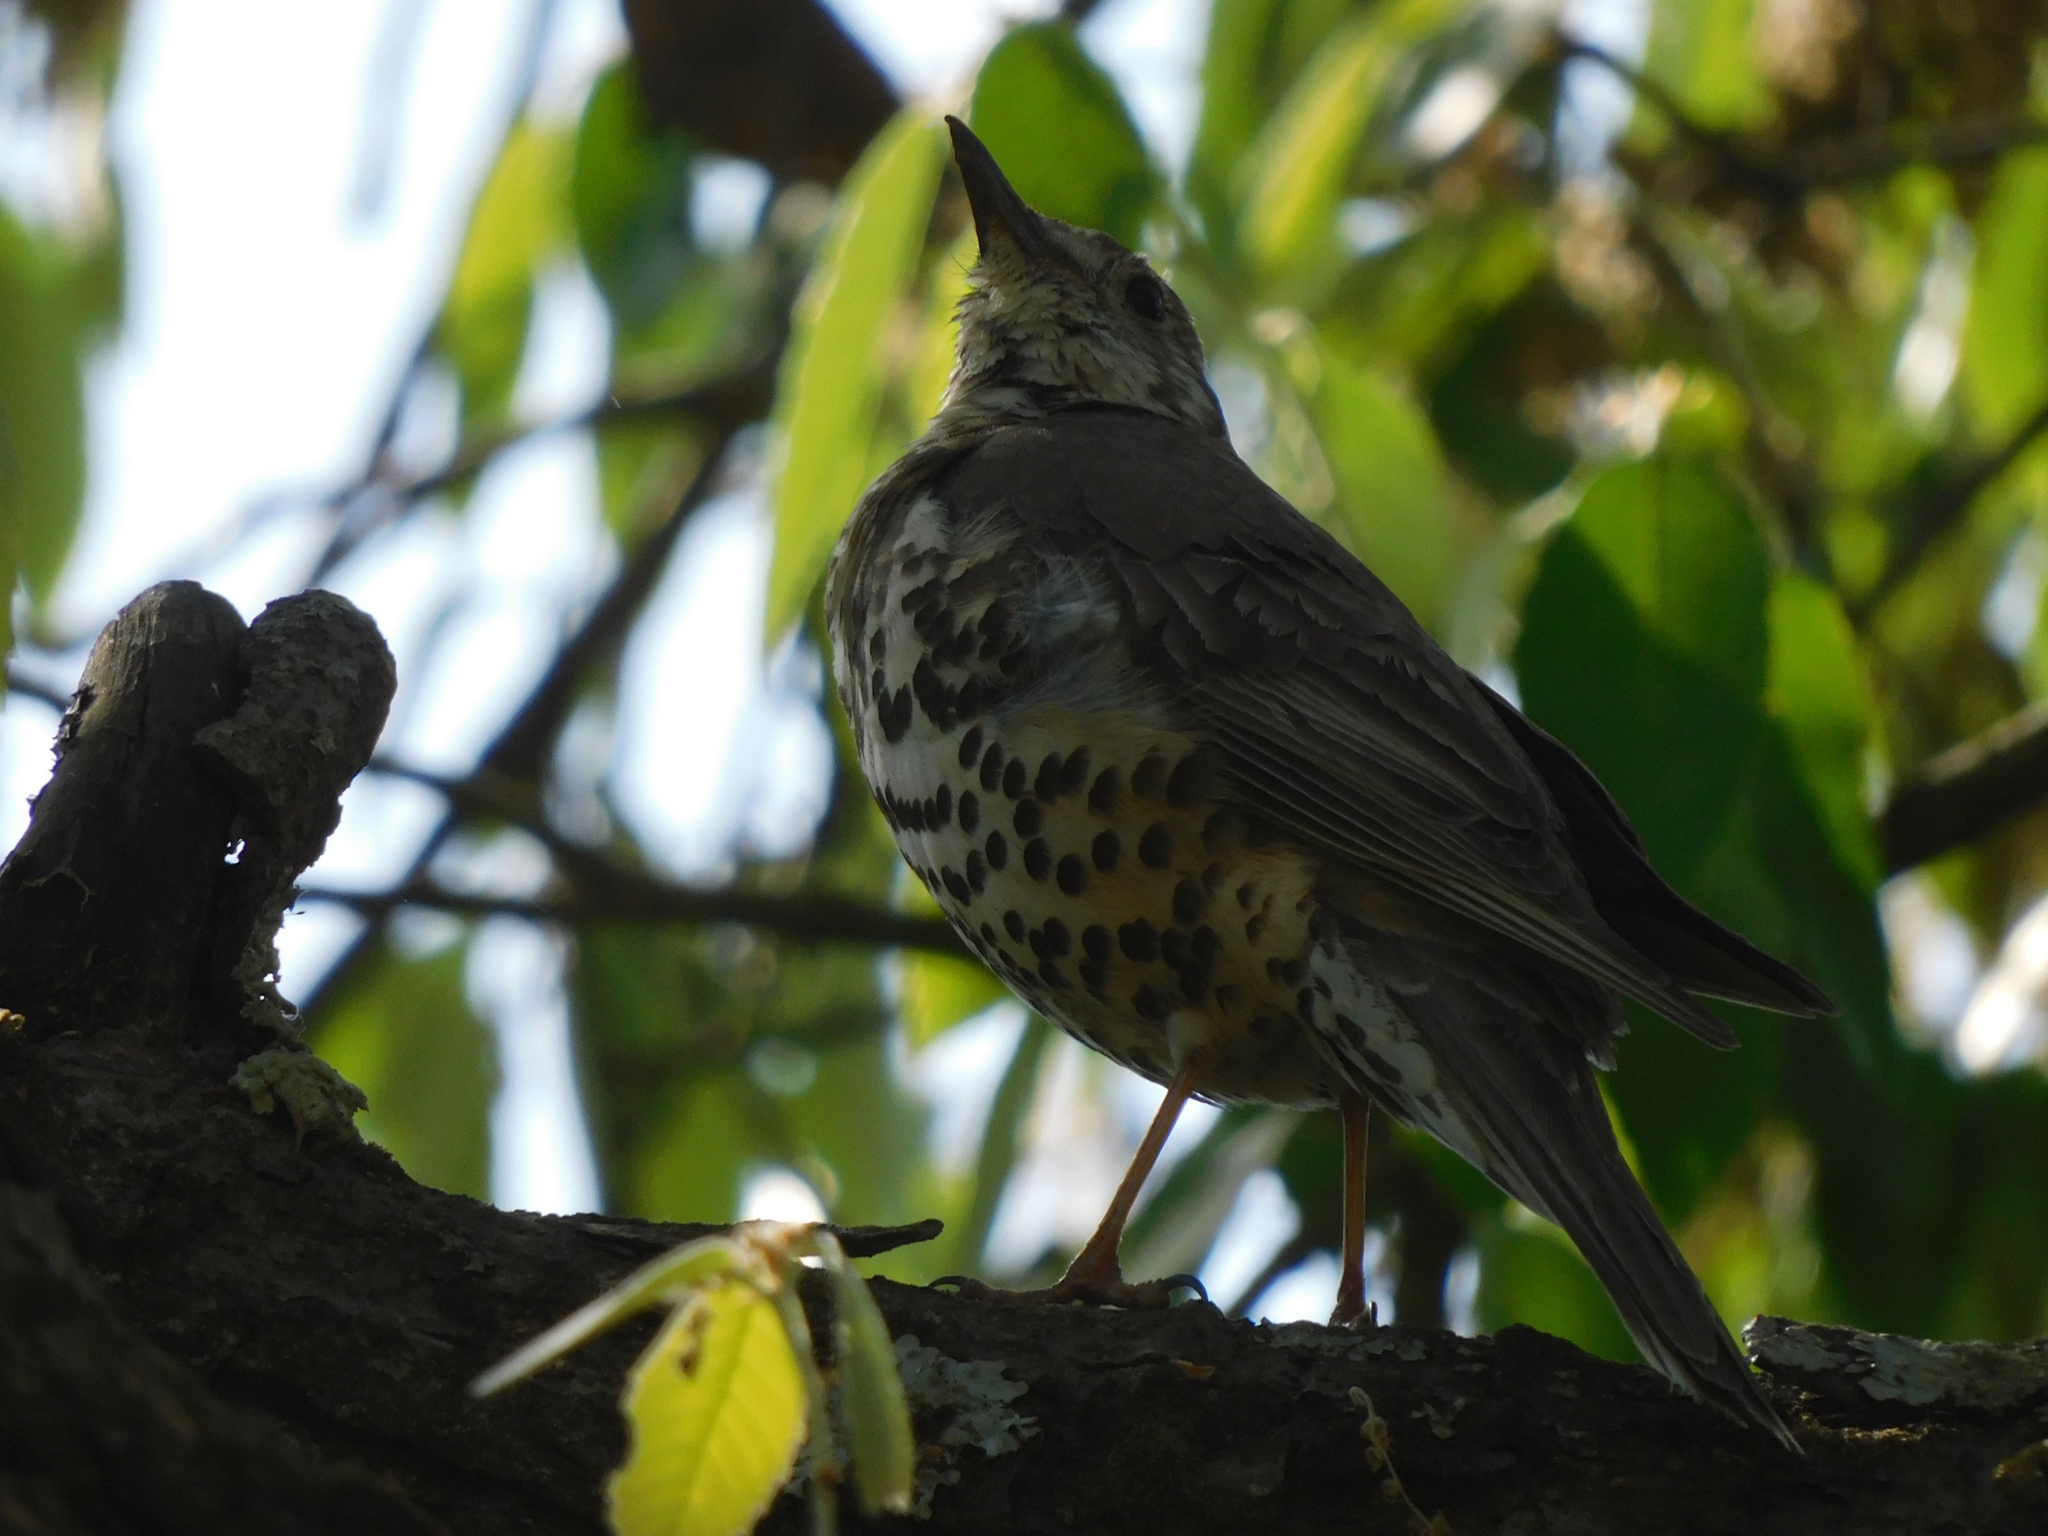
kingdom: Animalia
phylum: Chordata
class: Aves
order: Passeriformes
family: Turdidae
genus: Turdus
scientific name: Turdus viscivorus
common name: Mistle thrush
